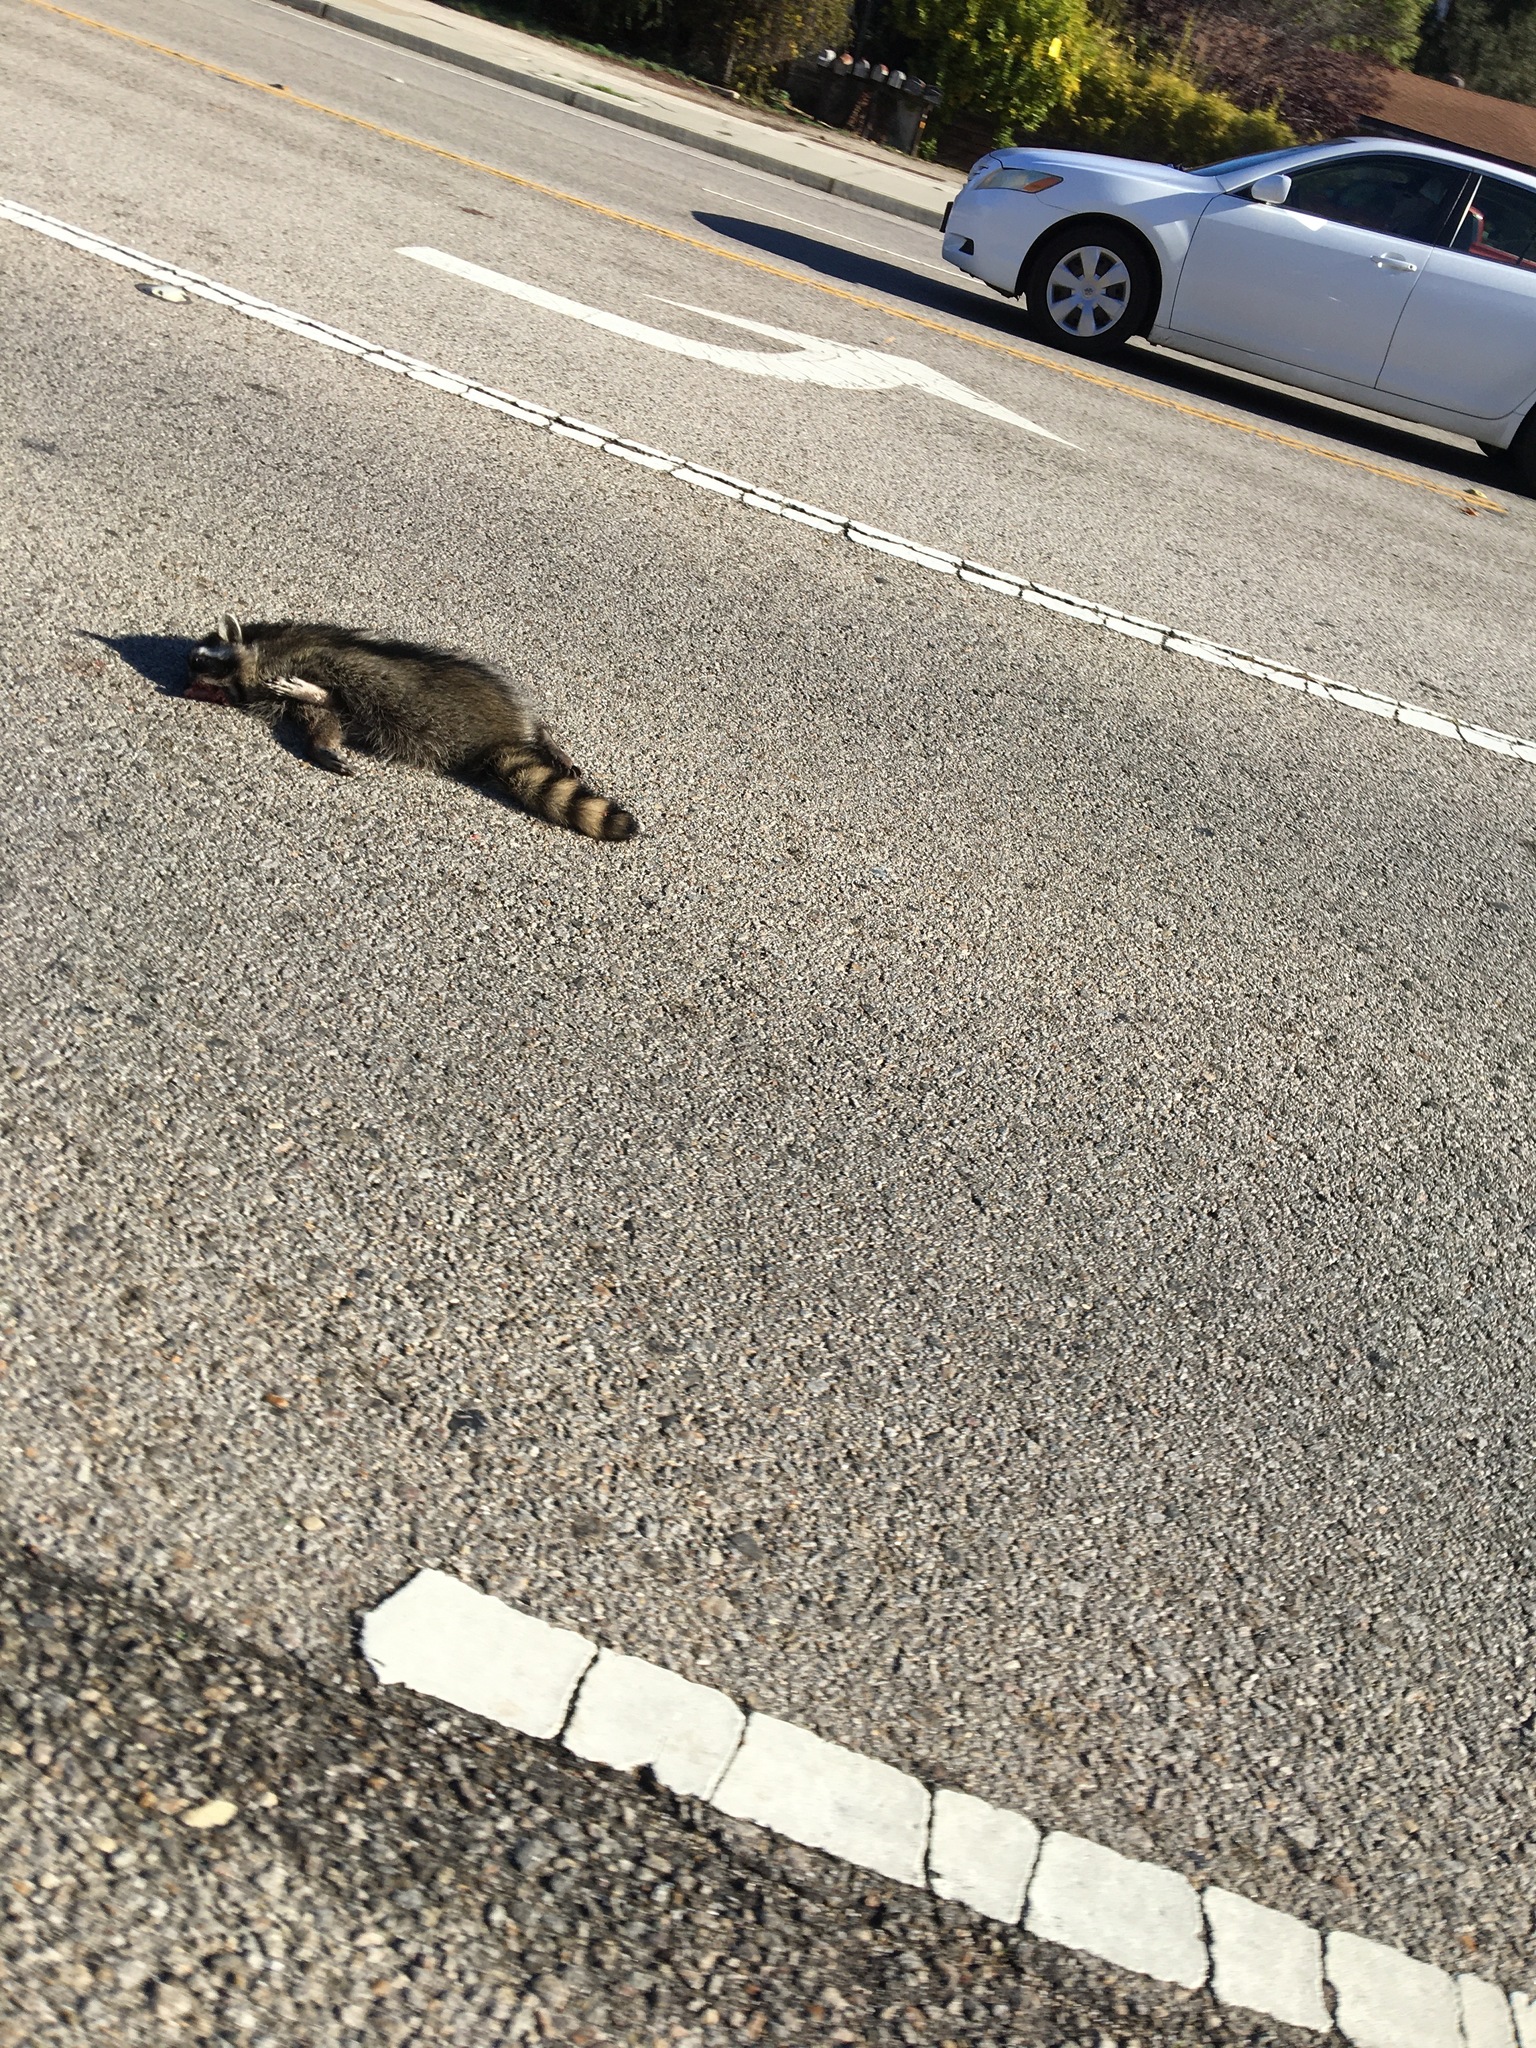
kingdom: Animalia
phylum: Chordata
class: Mammalia
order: Carnivora
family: Procyonidae
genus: Procyon
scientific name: Procyon lotor
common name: Raccoon
